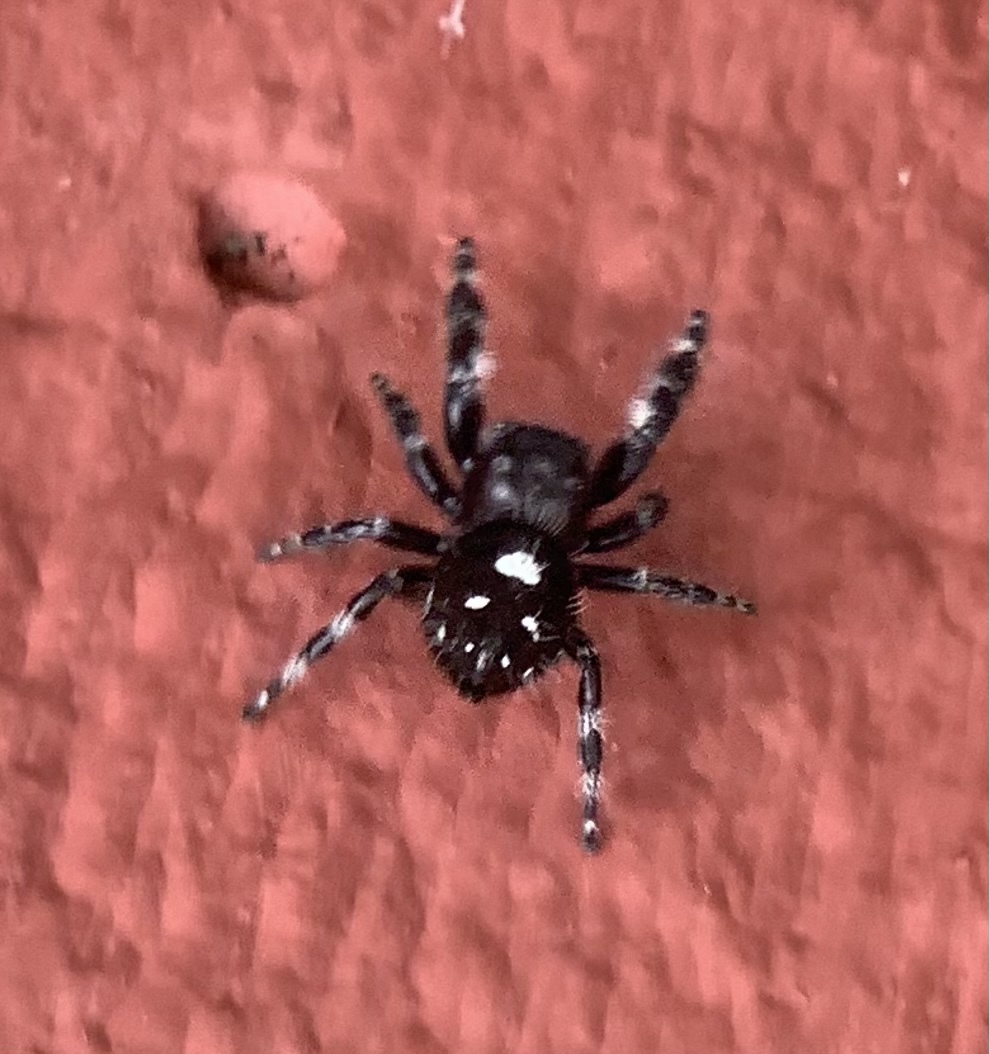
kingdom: Animalia
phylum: Arthropoda
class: Arachnida
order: Araneae
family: Salticidae
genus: Phidippus
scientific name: Phidippus audax
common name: Bold jumper
